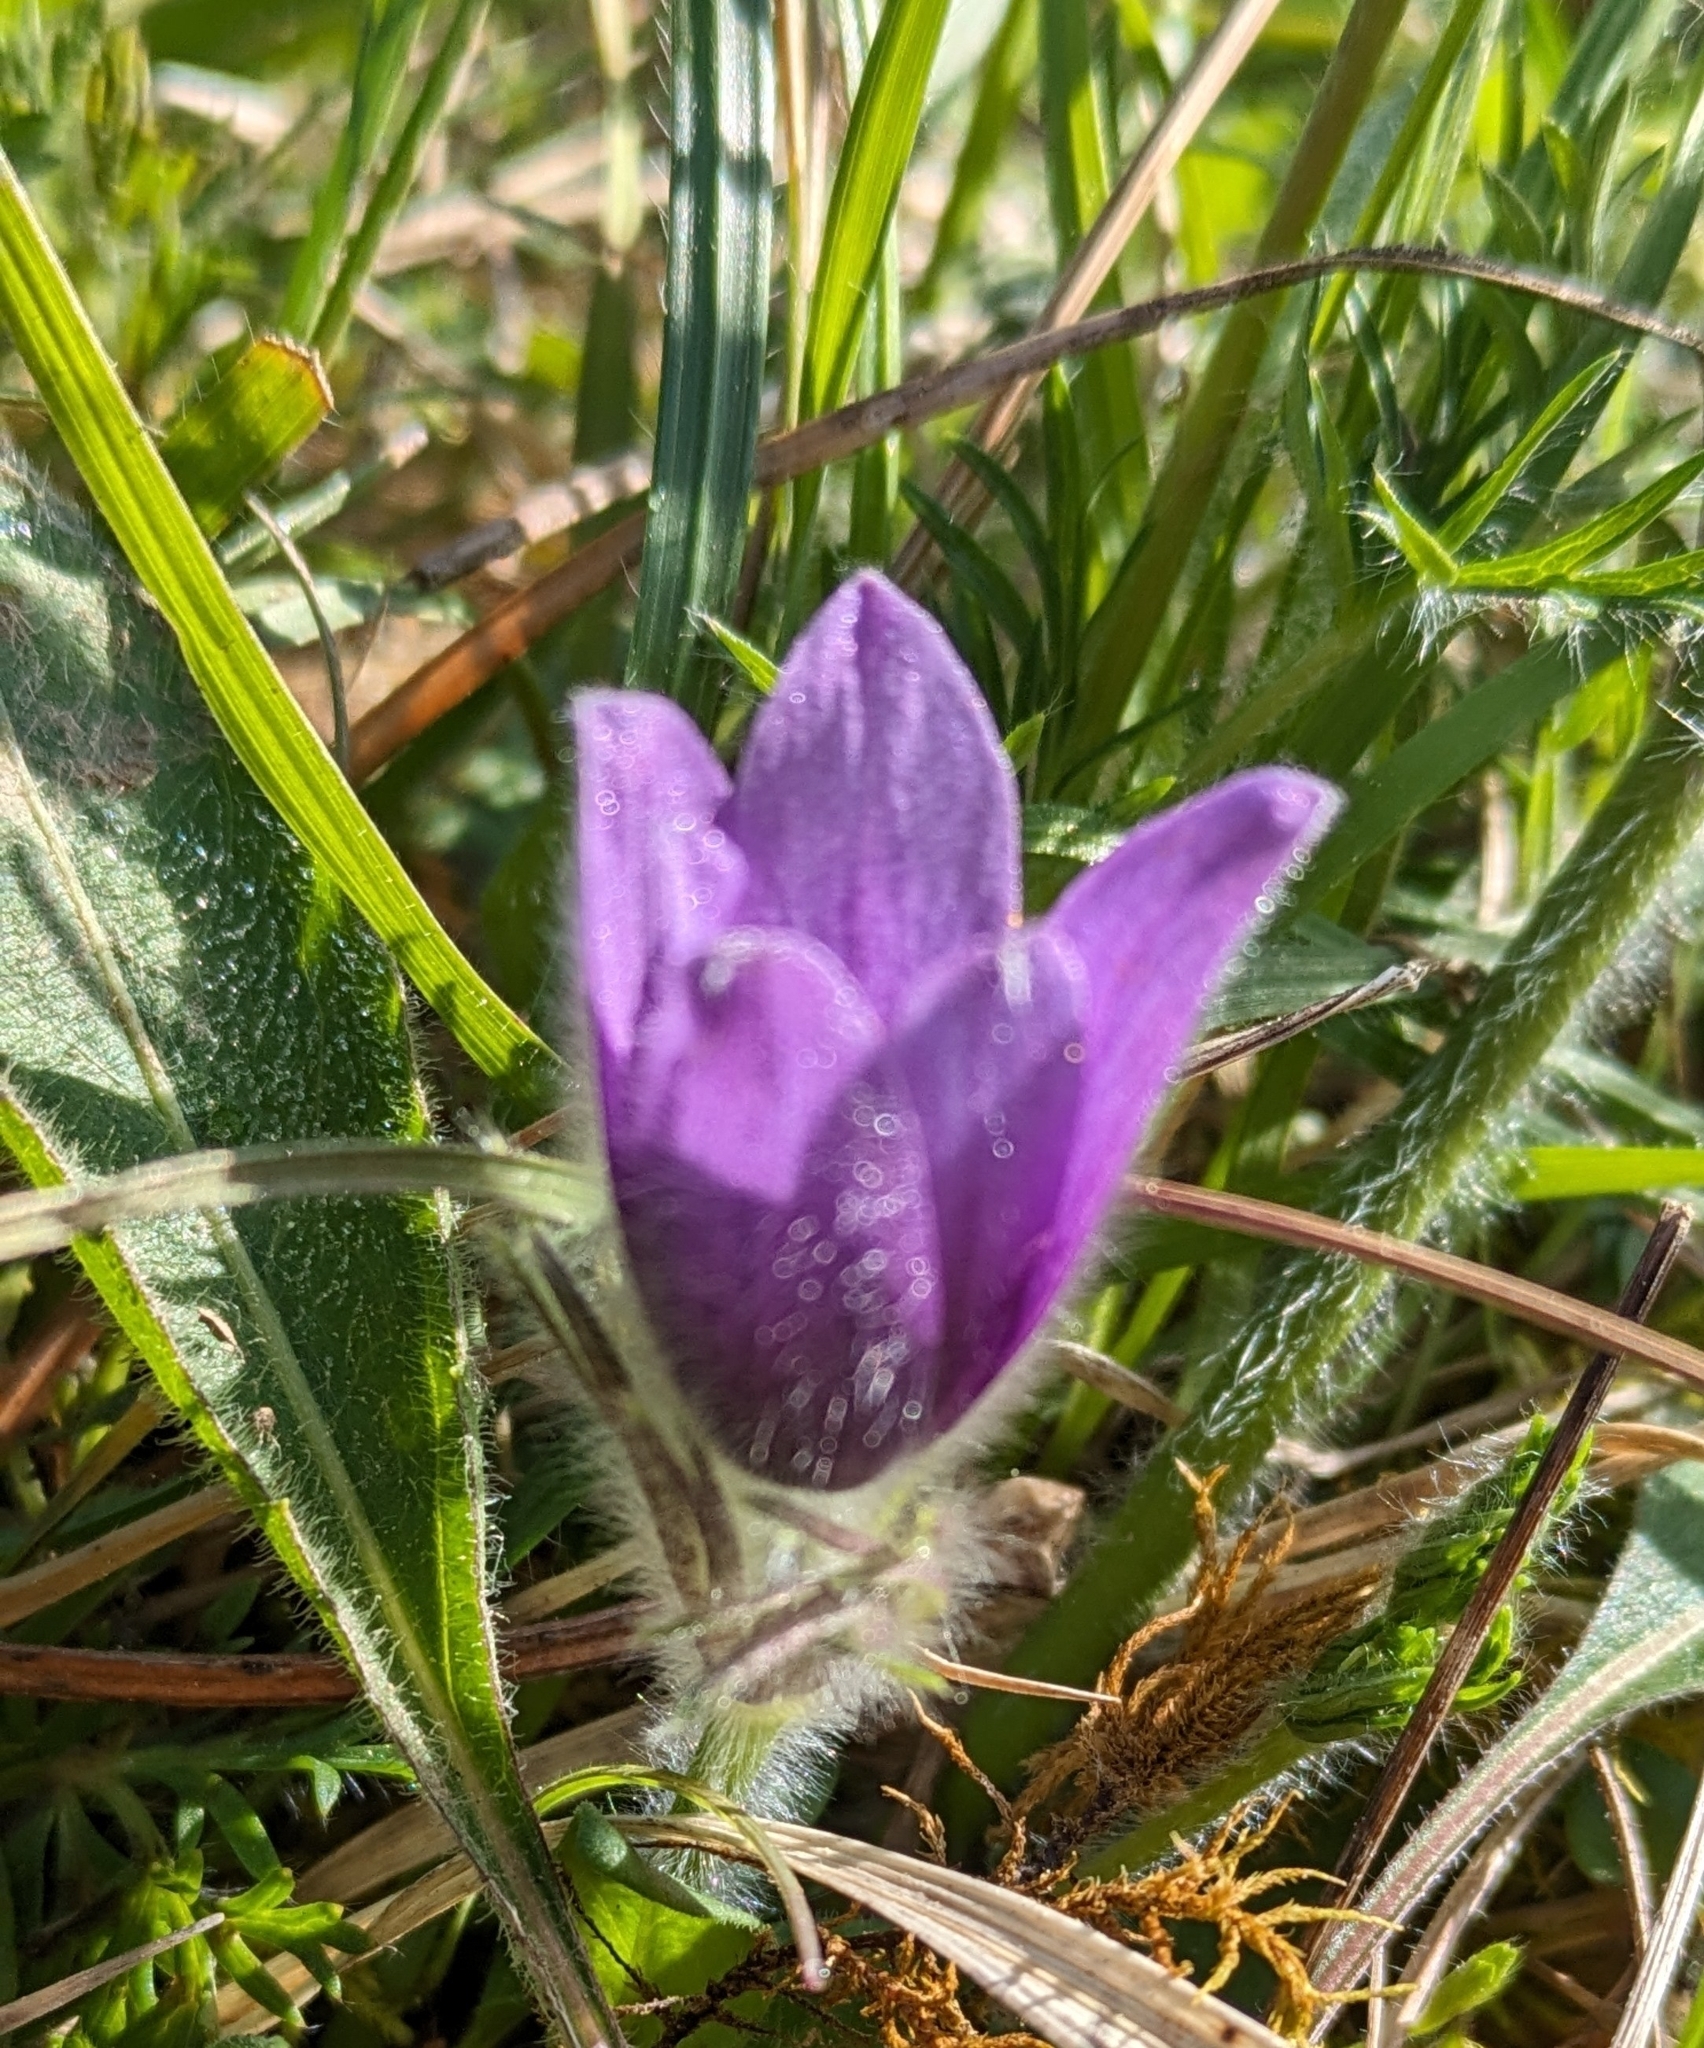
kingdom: Plantae
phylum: Tracheophyta
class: Magnoliopsida
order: Ranunculales
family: Ranunculaceae
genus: Pulsatilla
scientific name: Pulsatilla vulgaris
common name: Pasqueflower
